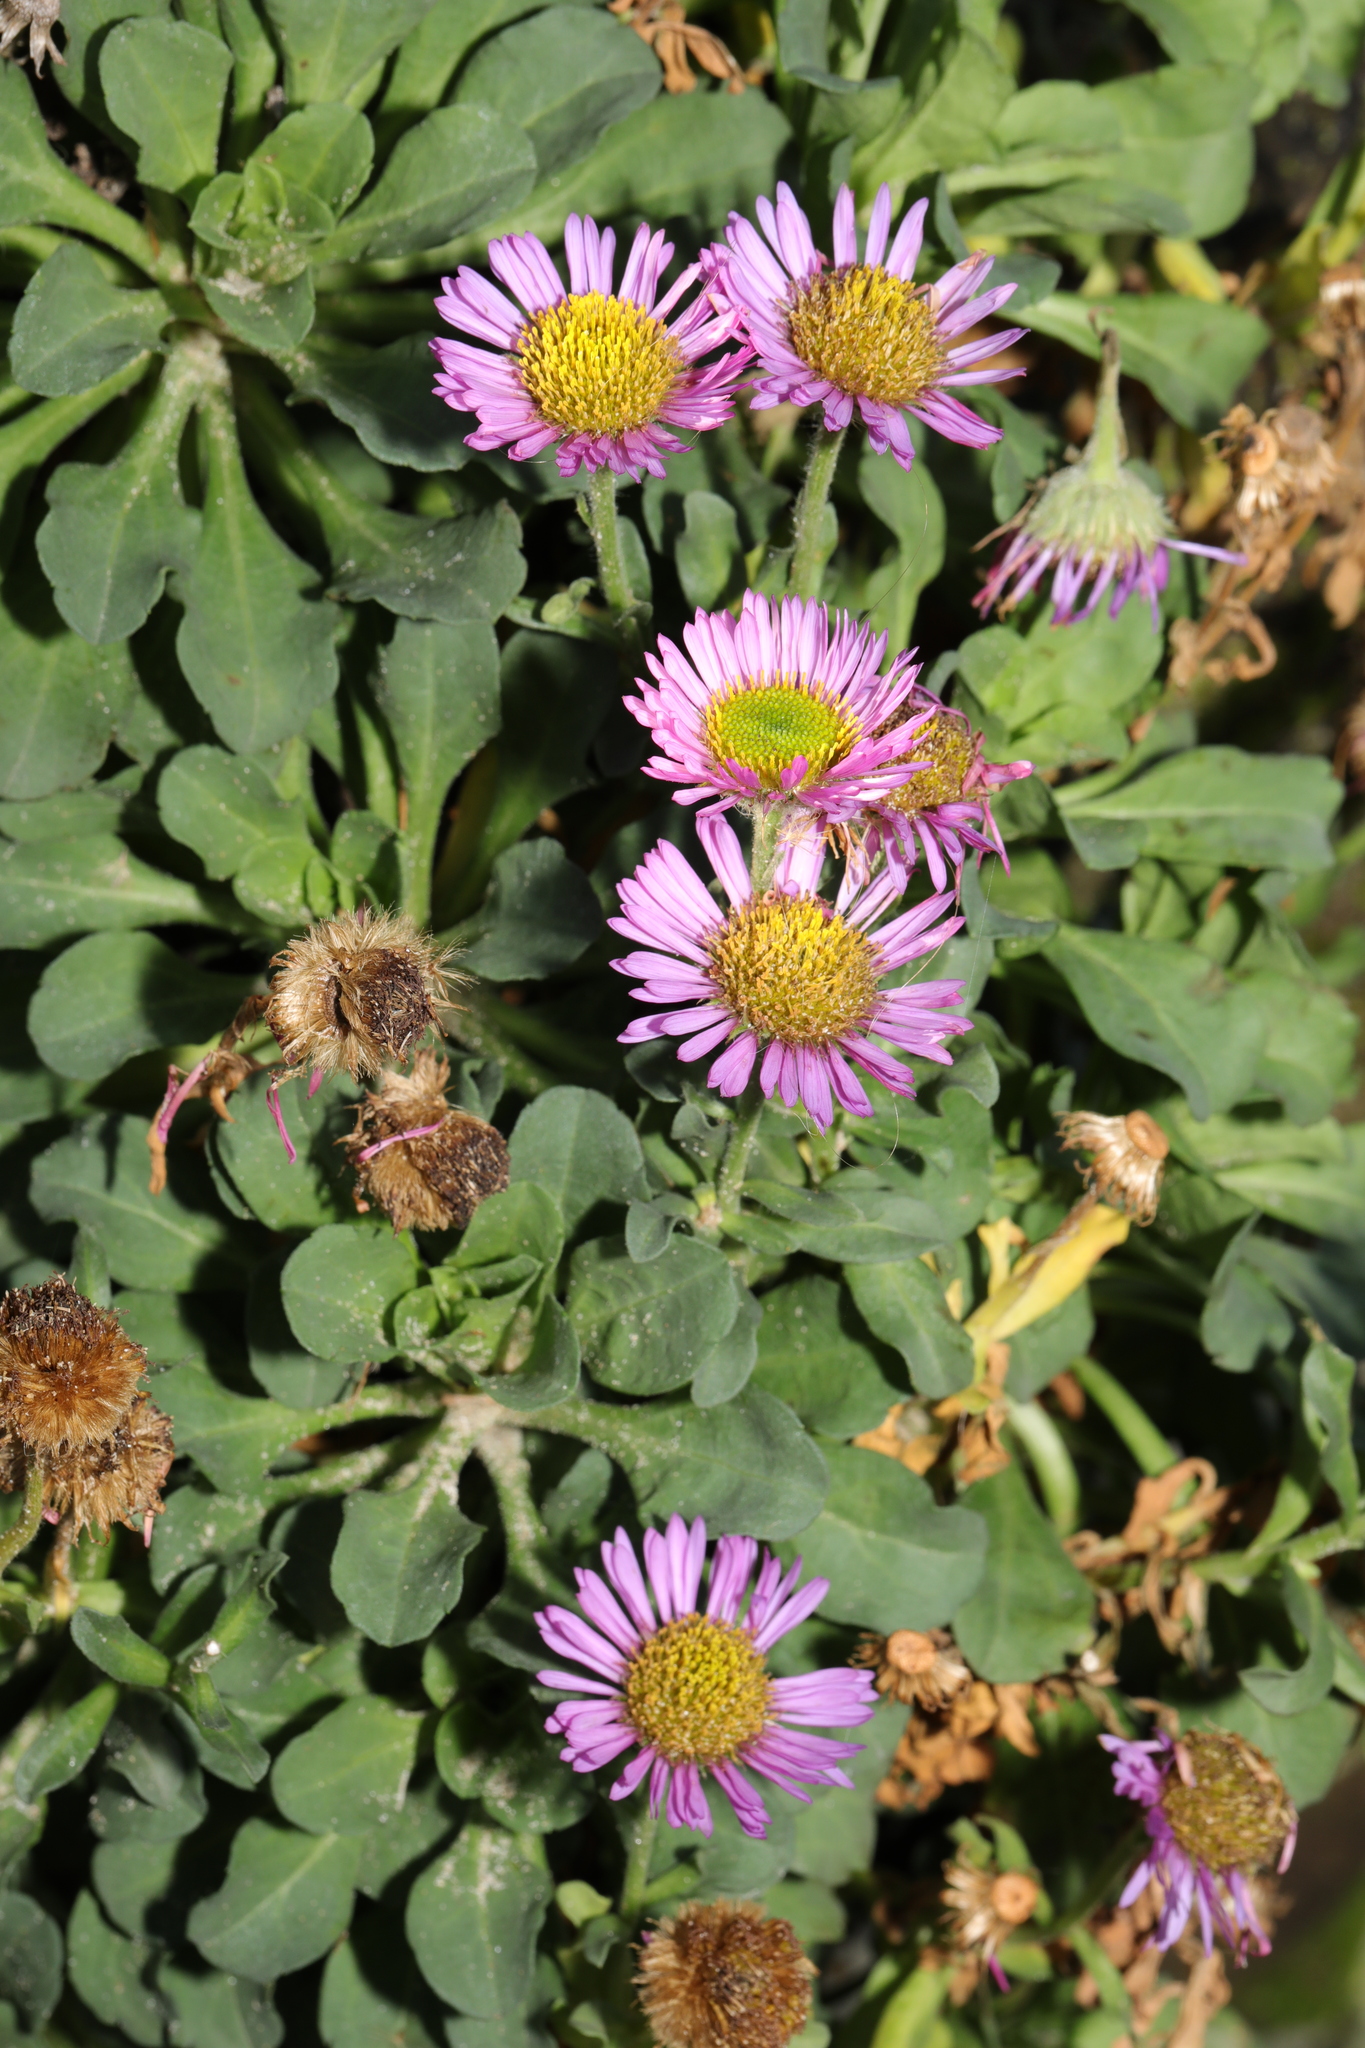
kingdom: Plantae
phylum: Tracheophyta
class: Magnoliopsida
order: Asterales
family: Asteraceae
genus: Erigeron
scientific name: Erigeron glaucus
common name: Seaside daisy
